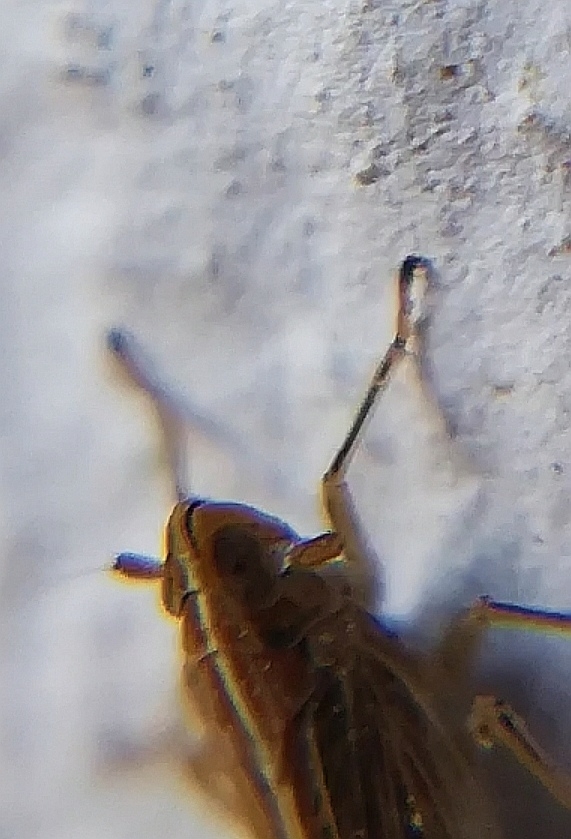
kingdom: Animalia
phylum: Arthropoda
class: Insecta
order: Hemiptera
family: Delphacidae
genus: Stenocranus
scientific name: Stenocranus major
